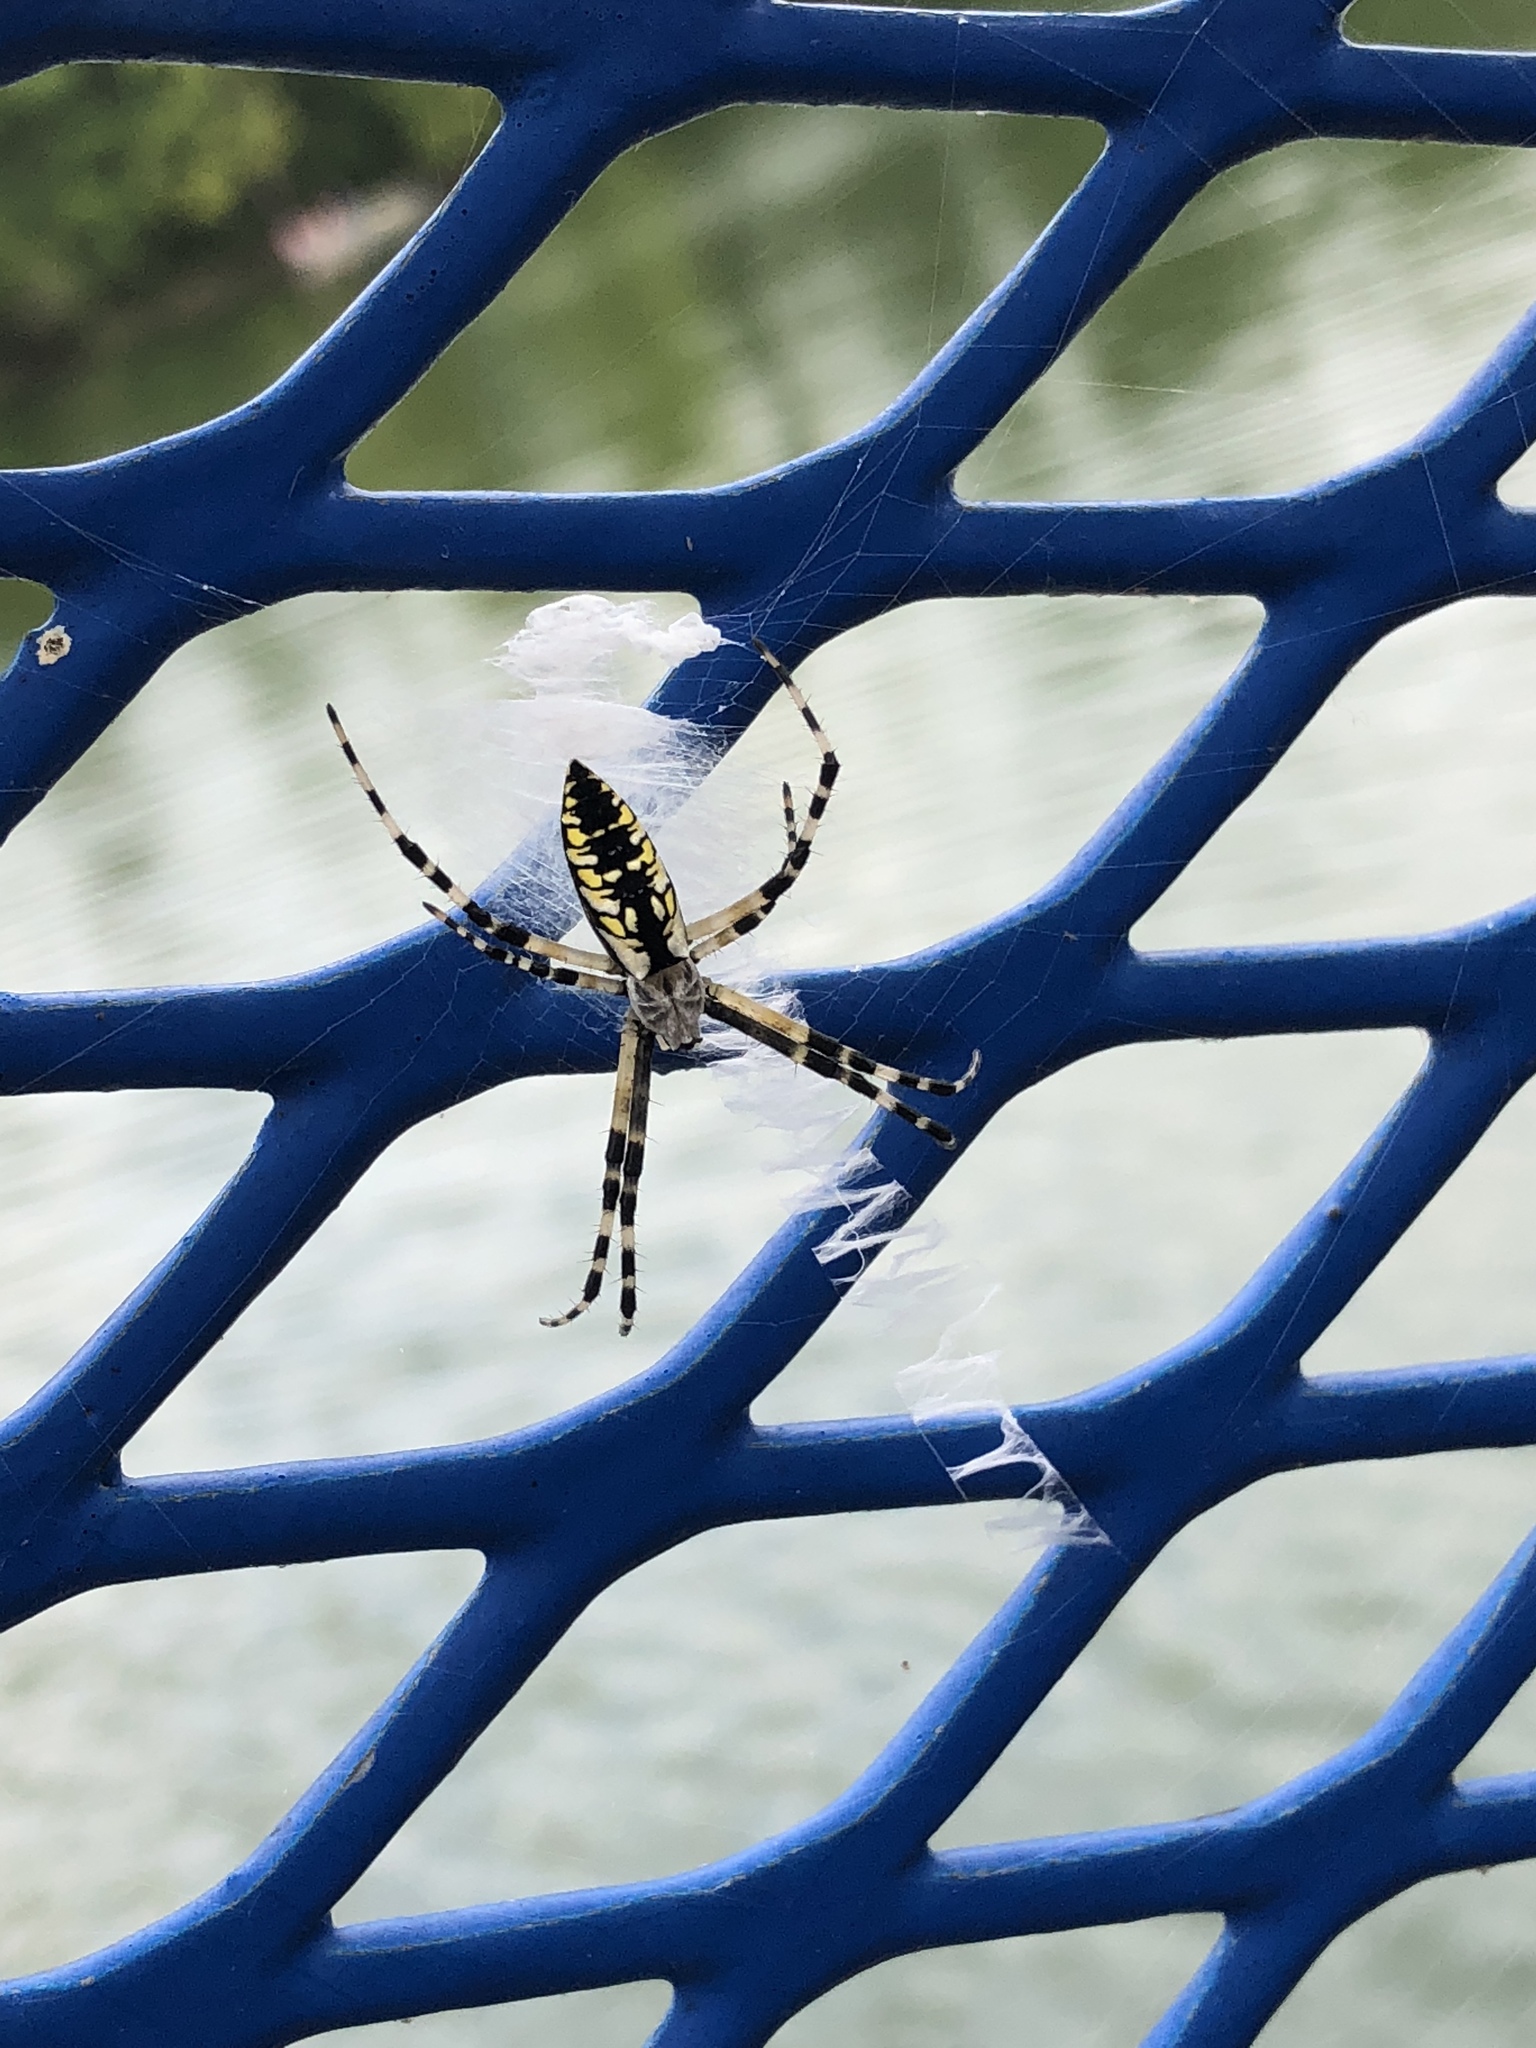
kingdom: Animalia
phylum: Arthropoda
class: Arachnida
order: Araneae
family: Araneidae
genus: Argiope
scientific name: Argiope aurantia
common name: Orb weavers
